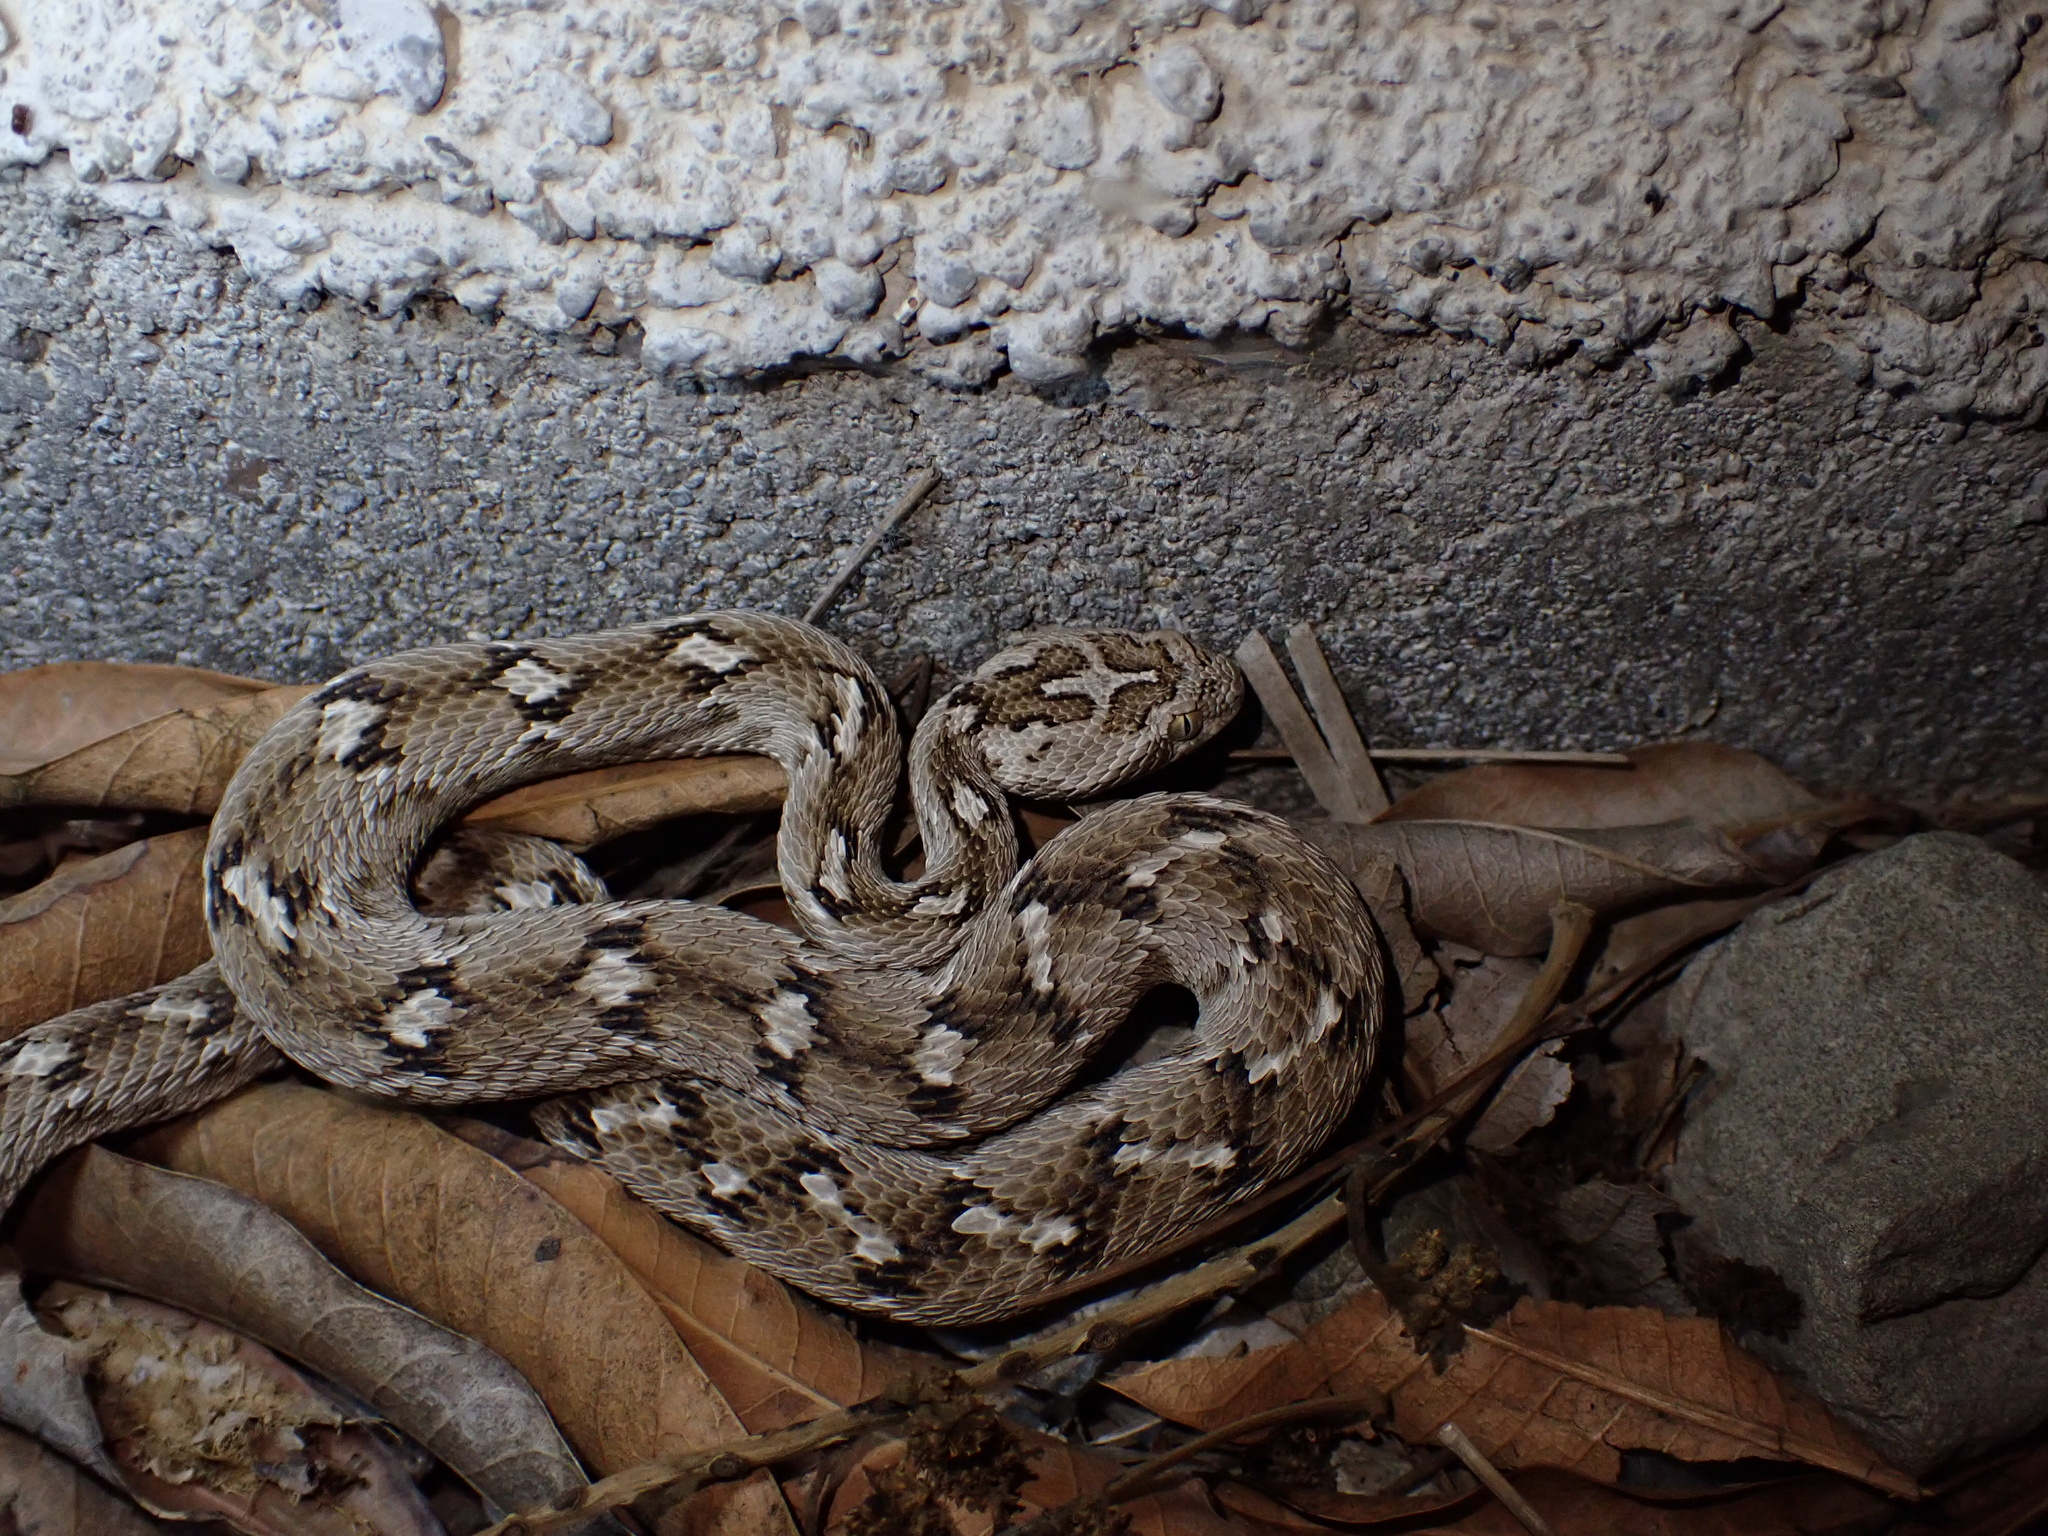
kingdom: Animalia
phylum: Chordata
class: Squamata
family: Viperidae
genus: Echis
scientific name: Echis carinatus
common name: Saw-scaled viper
